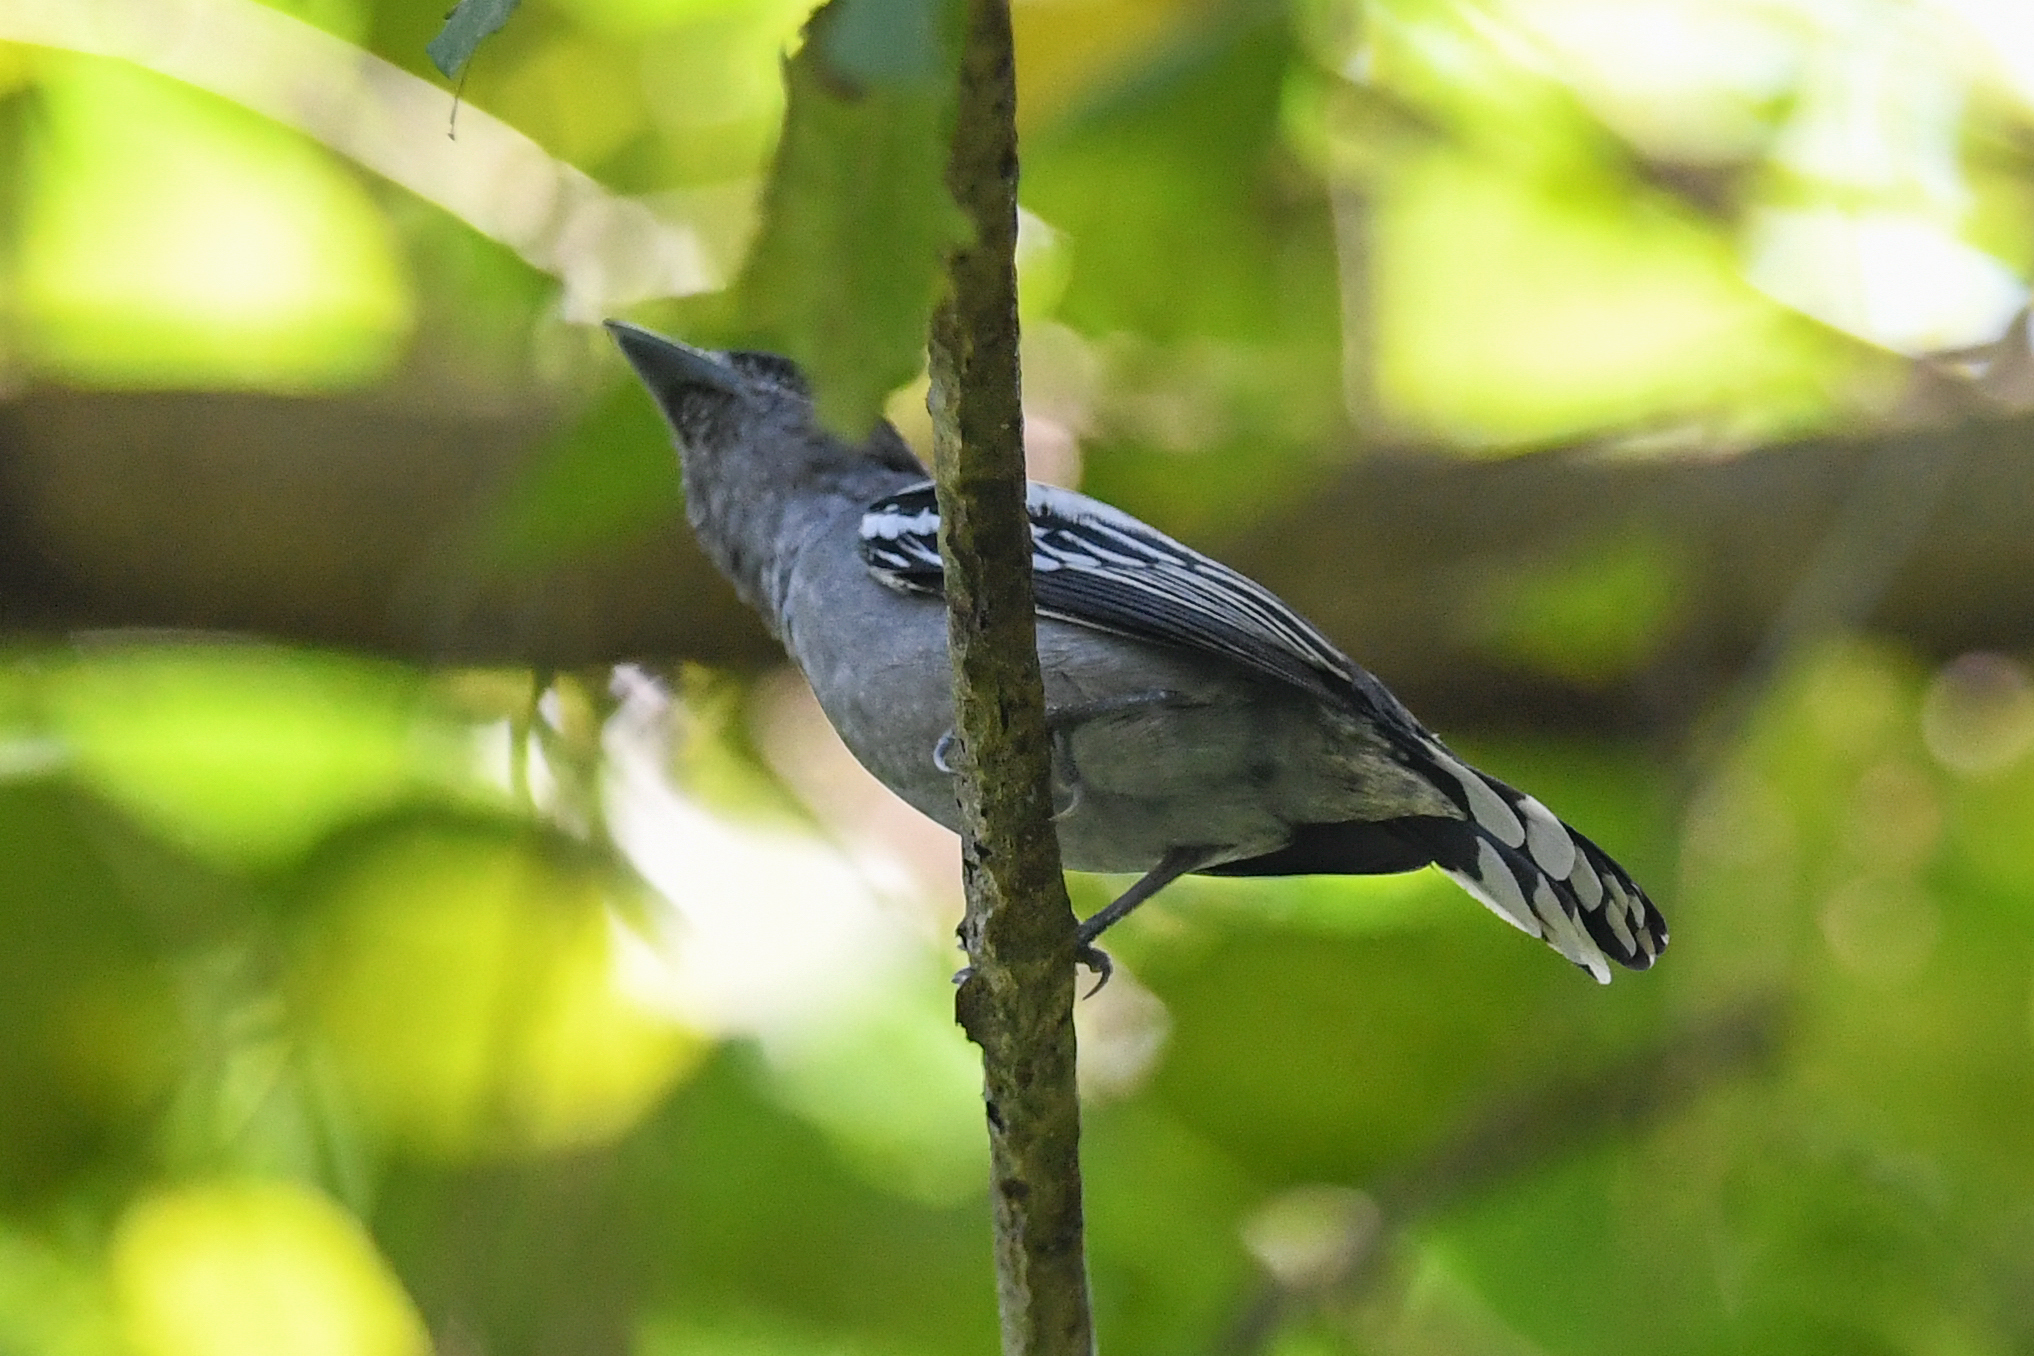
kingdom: Animalia
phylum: Chordata
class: Aves
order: Passeriformes
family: Cotingidae
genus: Pachyramphus
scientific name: Pachyramphus polychopterus
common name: White-winged becard
